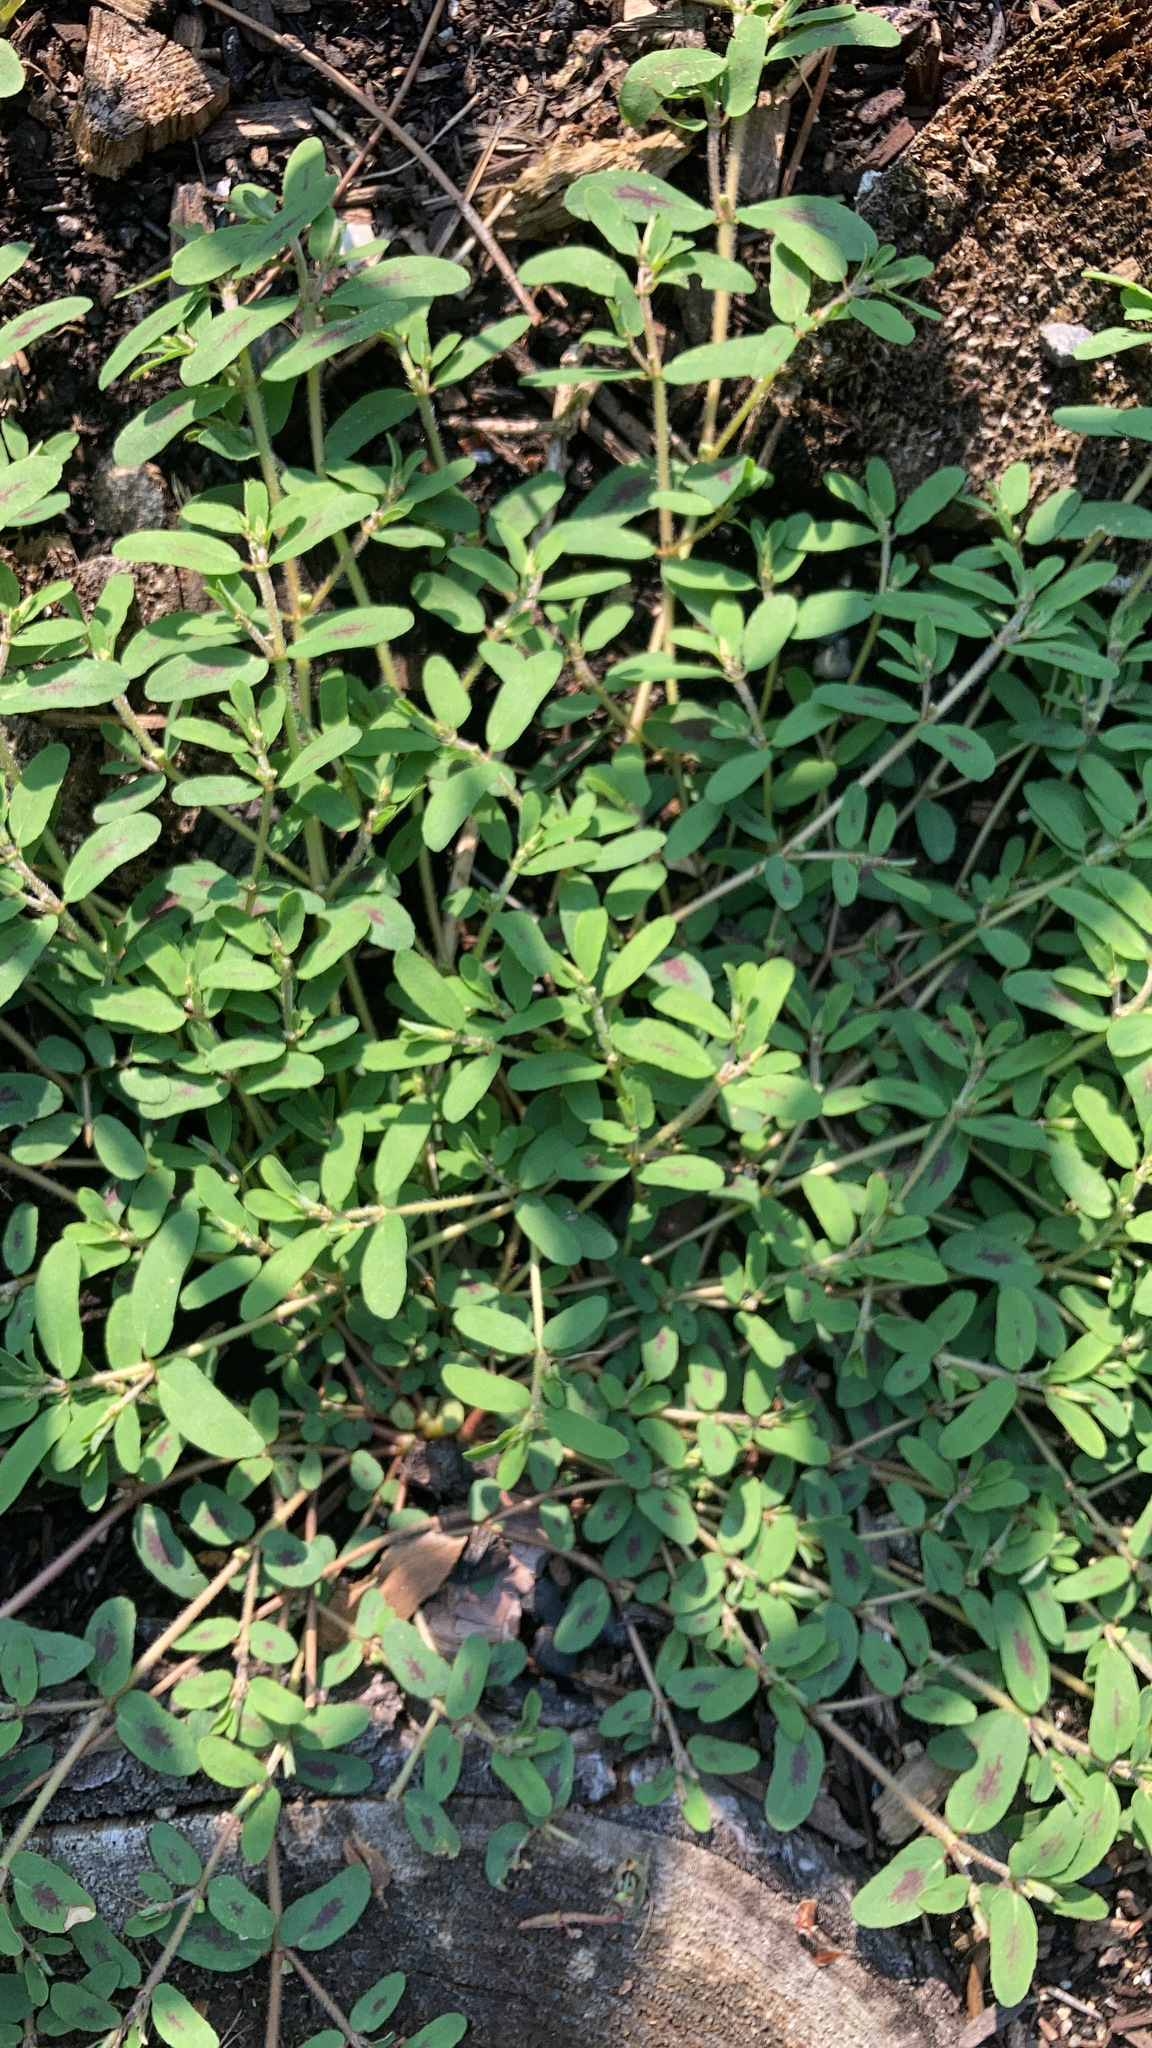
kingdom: Plantae
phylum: Tracheophyta
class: Magnoliopsida
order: Malpighiales
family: Euphorbiaceae
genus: Euphorbia
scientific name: Euphorbia maculata
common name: Spotted spurge
